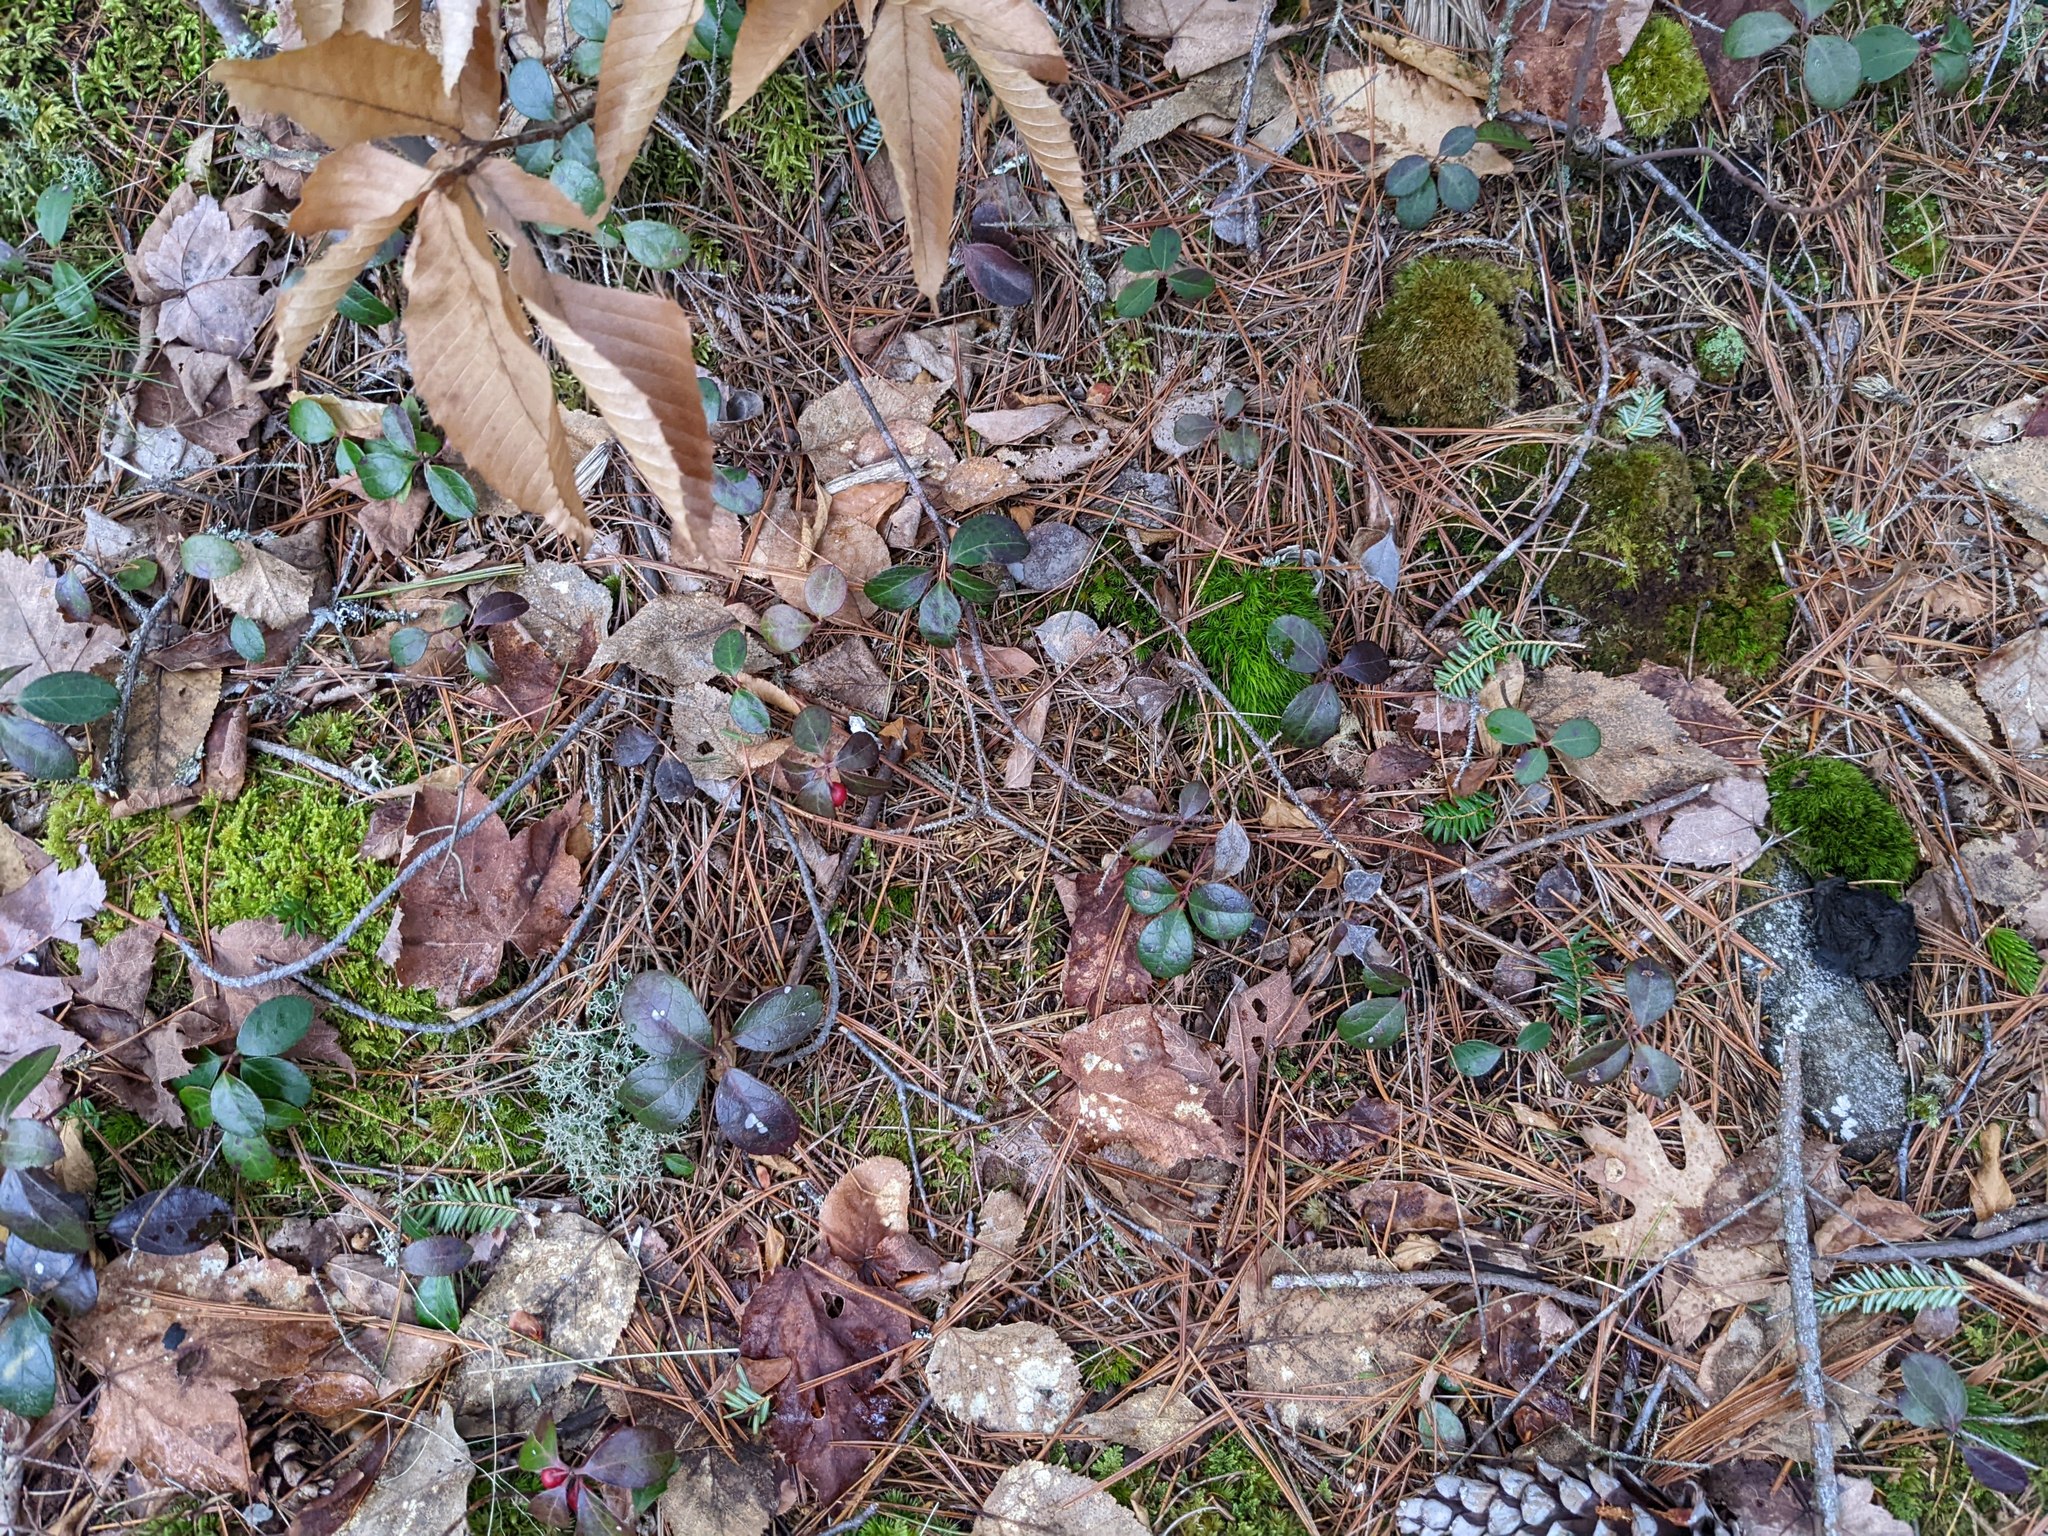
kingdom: Plantae
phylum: Tracheophyta
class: Magnoliopsida
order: Ericales
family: Ericaceae
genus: Gaultheria
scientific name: Gaultheria procumbens
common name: Checkerberry
